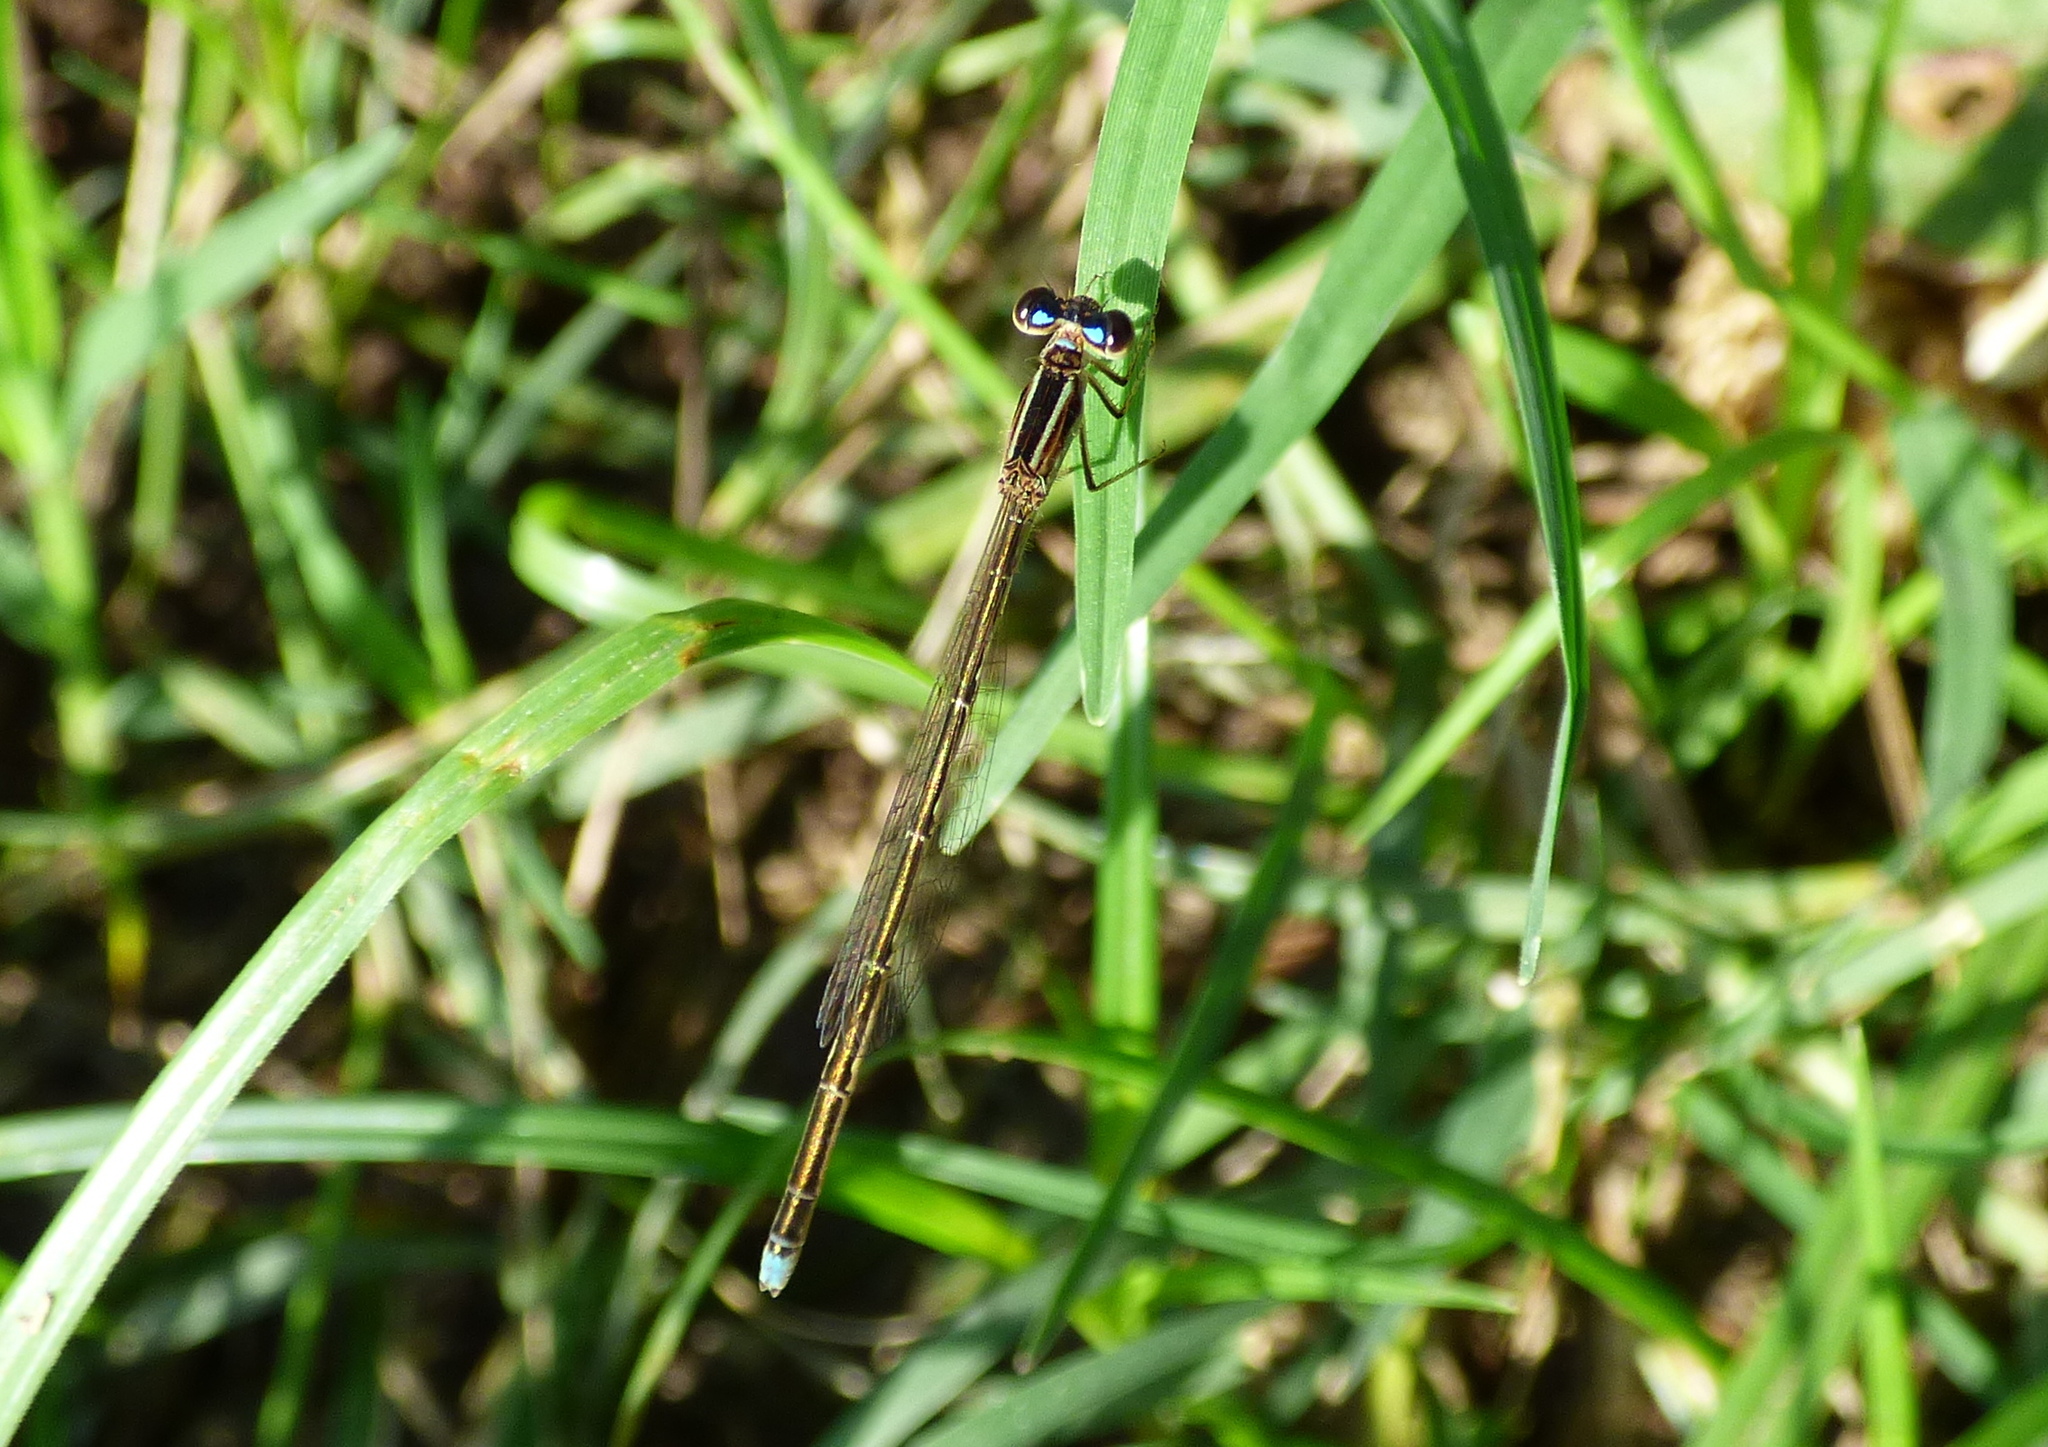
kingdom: Animalia
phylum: Arthropoda
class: Insecta
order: Odonata
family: Coenagrionidae
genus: Argentagrion
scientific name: Argentagrion ambiguum
